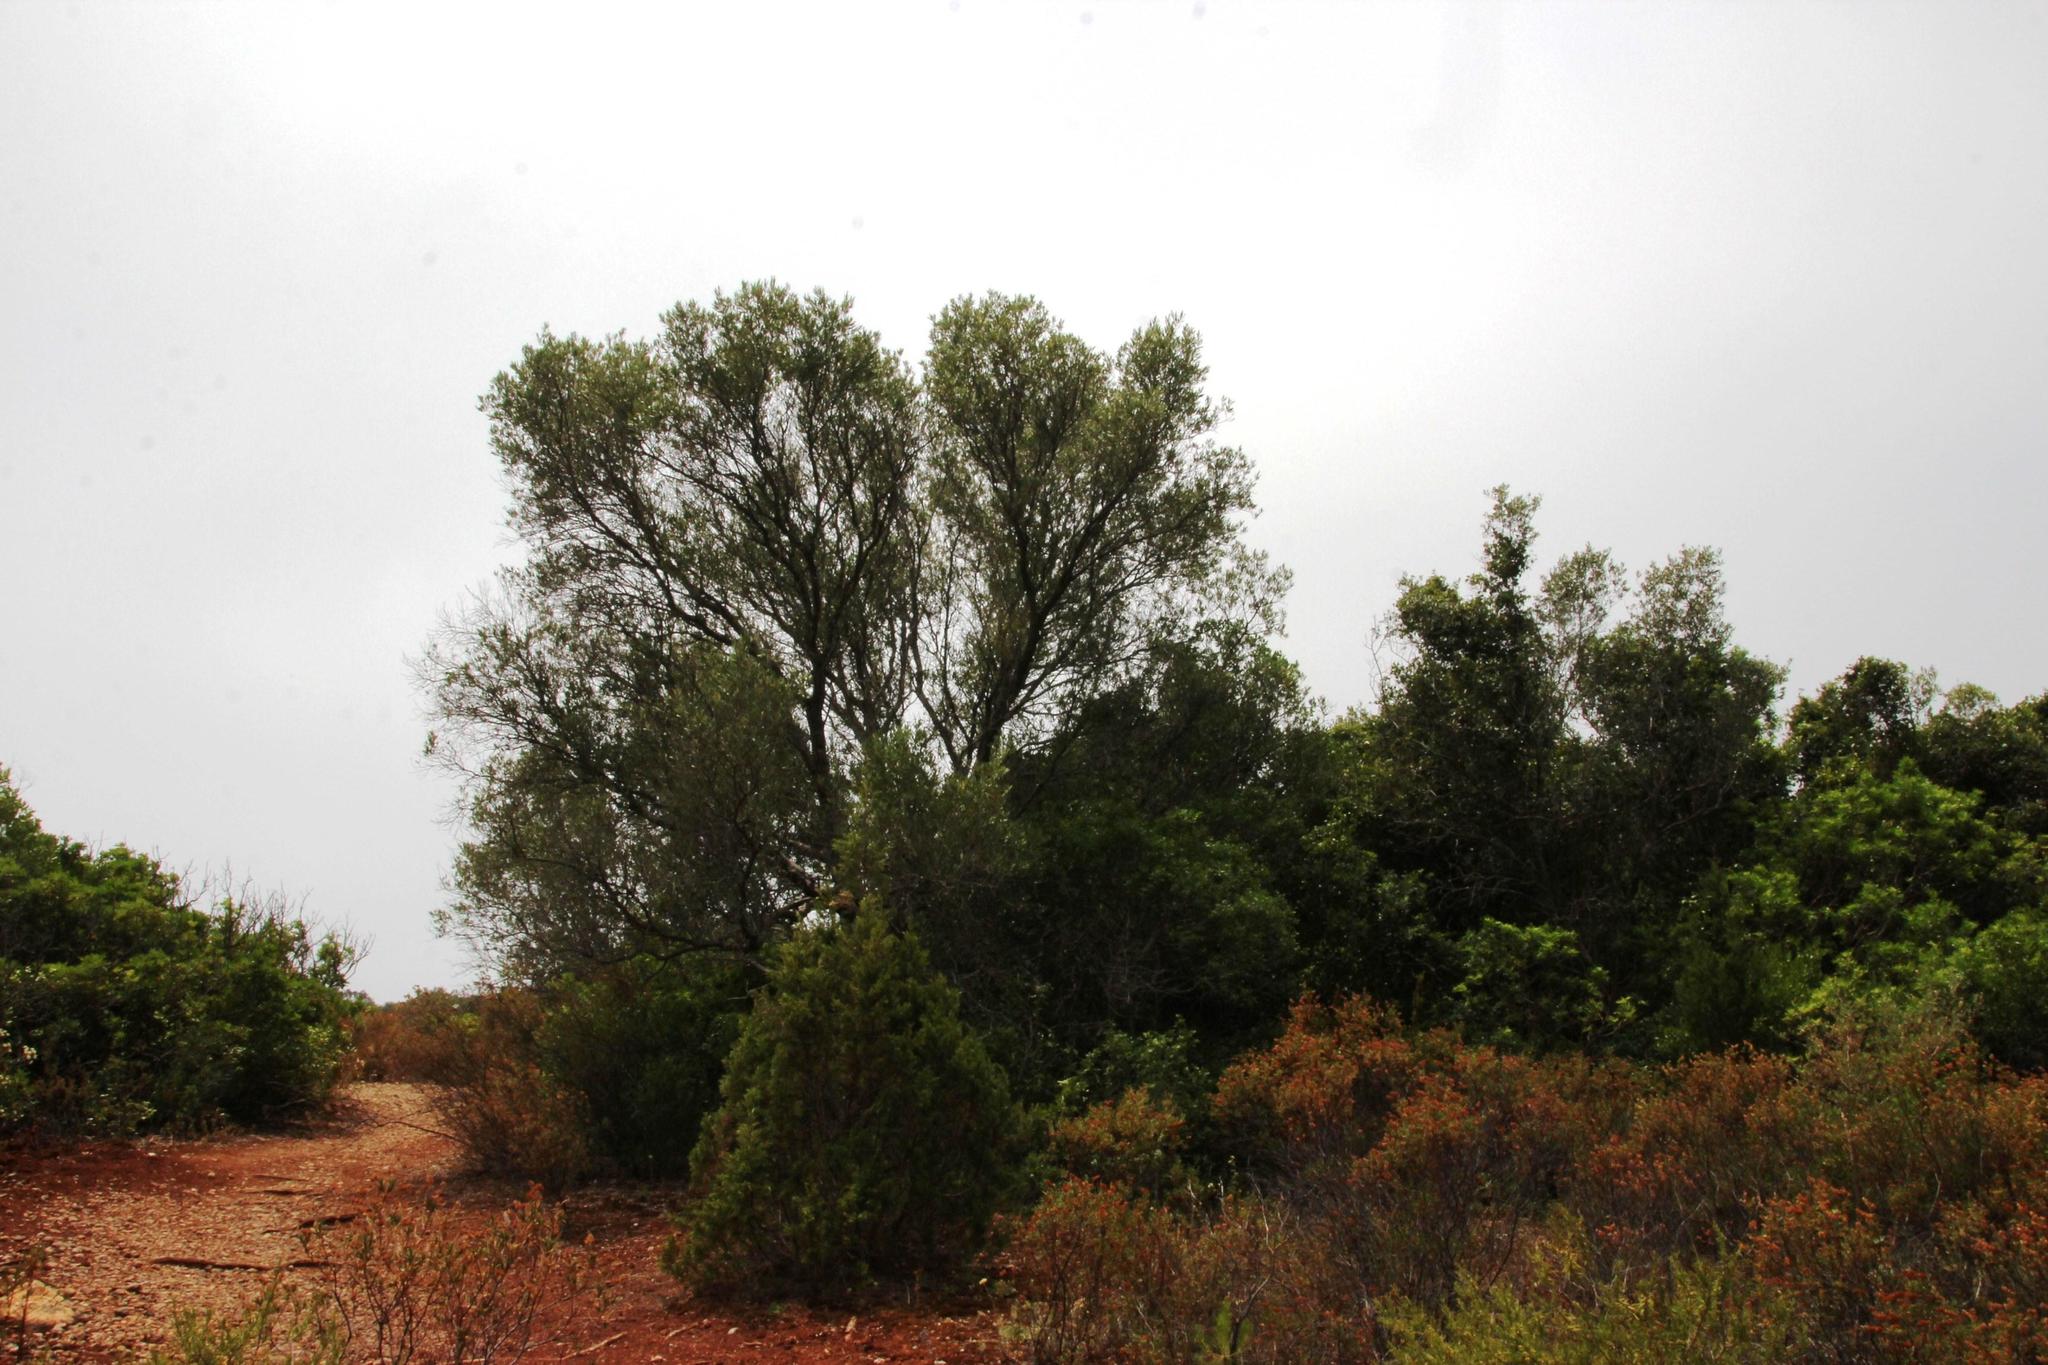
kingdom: Plantae
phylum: Tracheophyta
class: Magnoliopsida
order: Lamiales
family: Oleaceae
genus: Olea
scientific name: Olea europaea
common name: Olive
